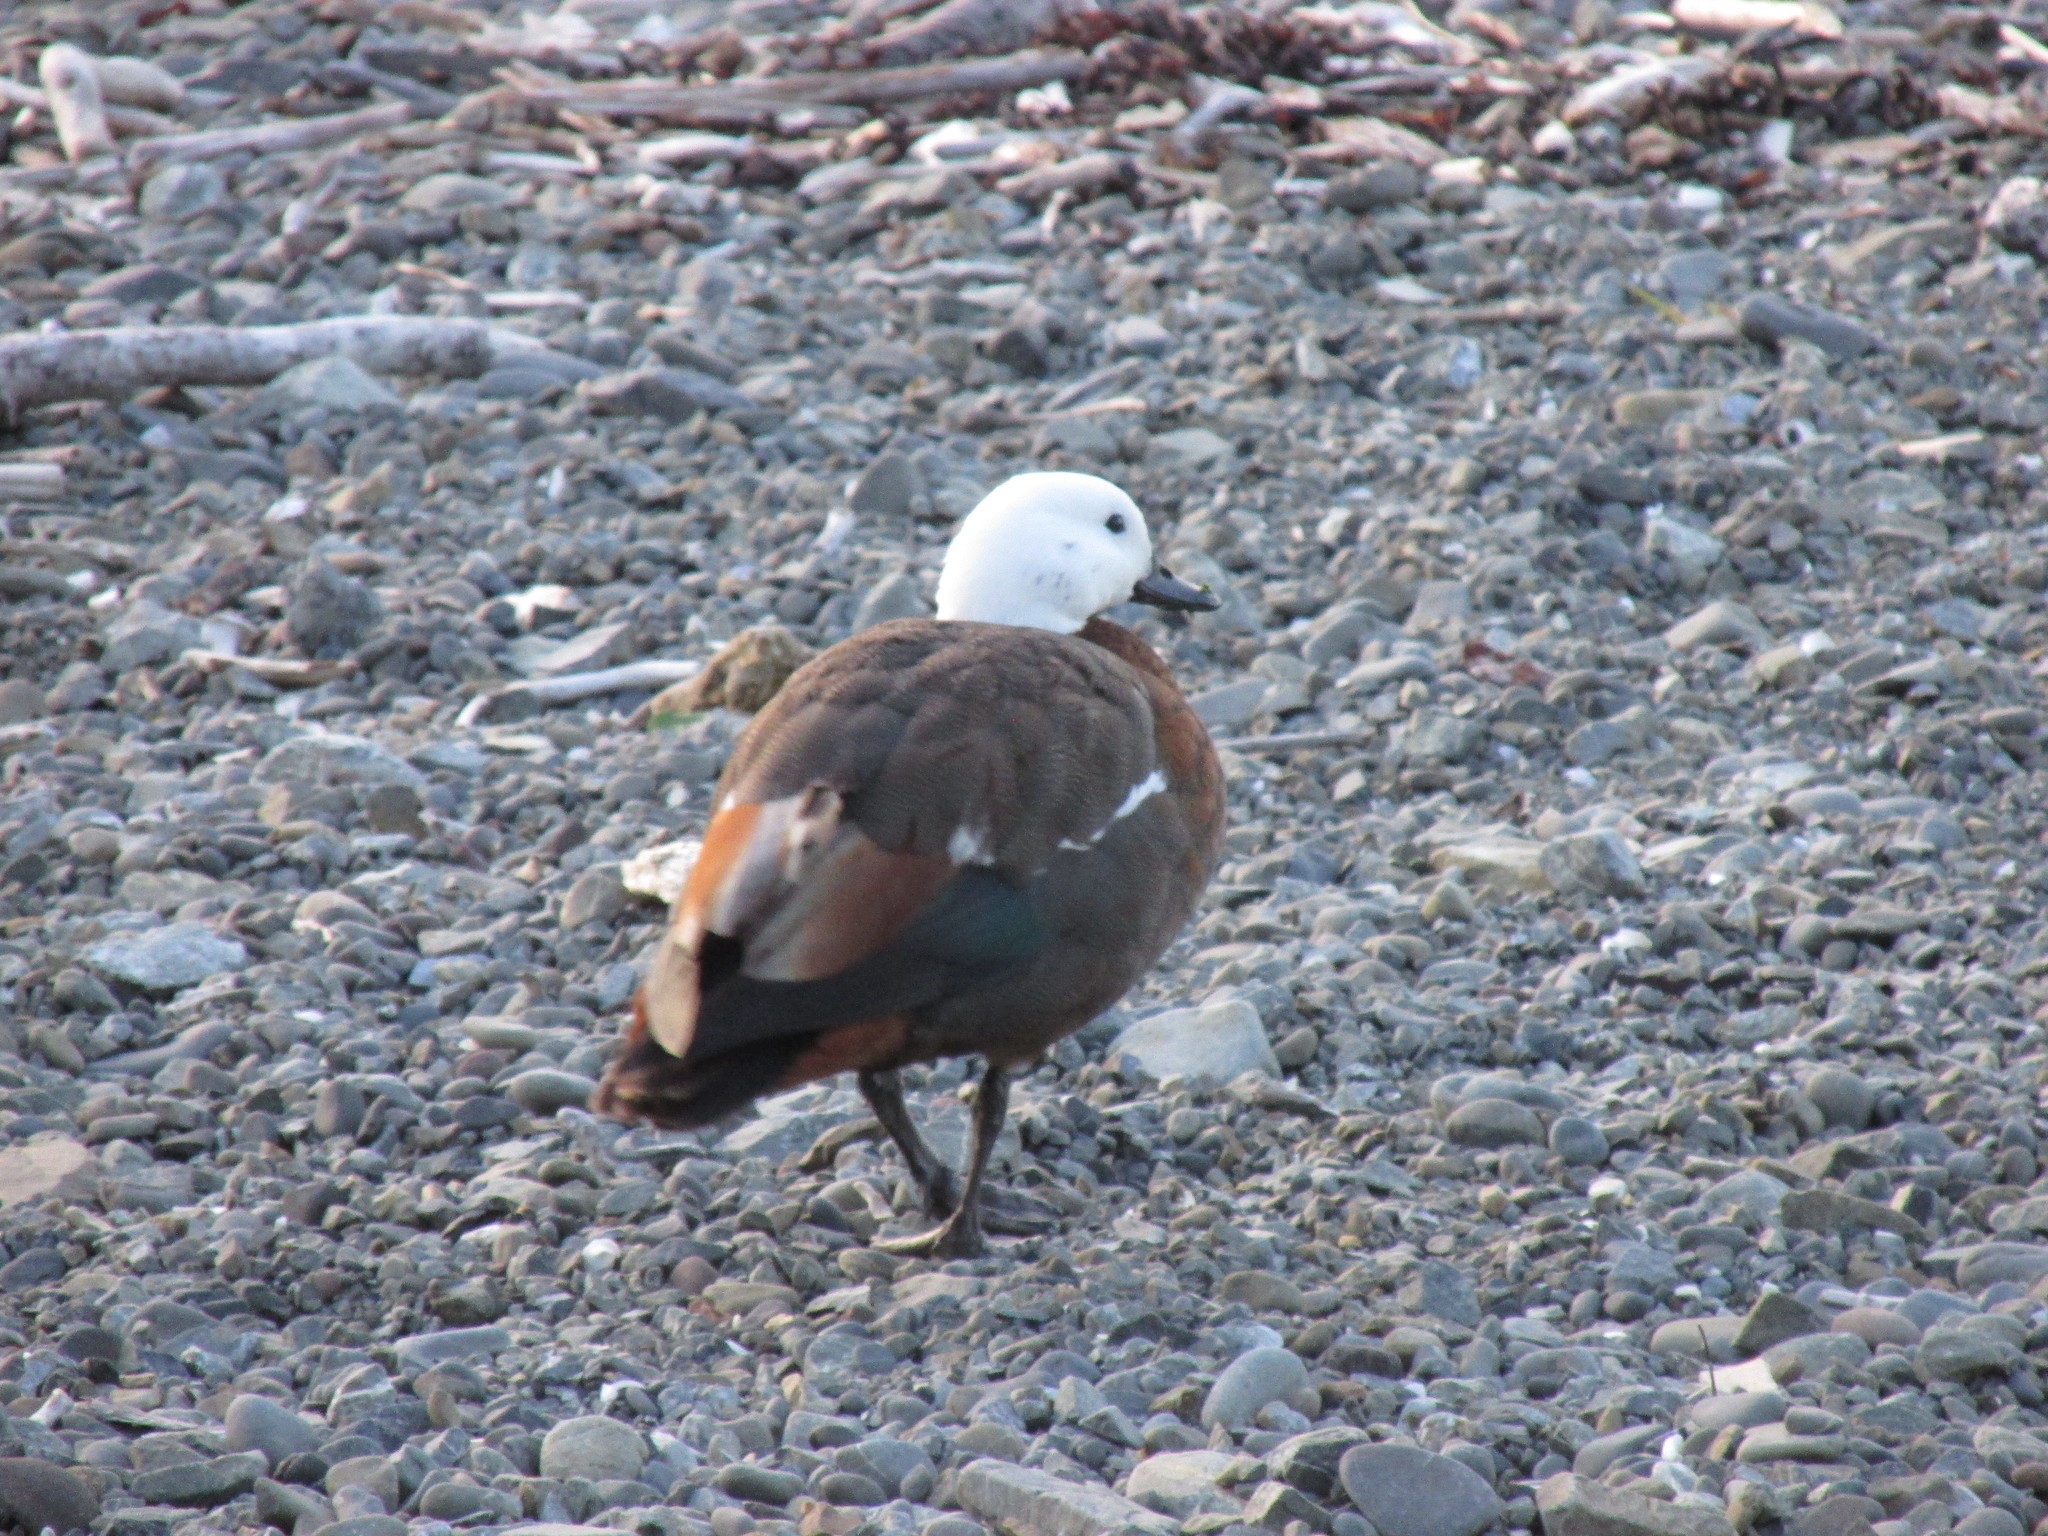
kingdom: Animalia
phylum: Chordata
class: Aves
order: Anseriformes
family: Anatidae
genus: Tadorna
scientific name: Tadorna variegata
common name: Paradise shelduck
